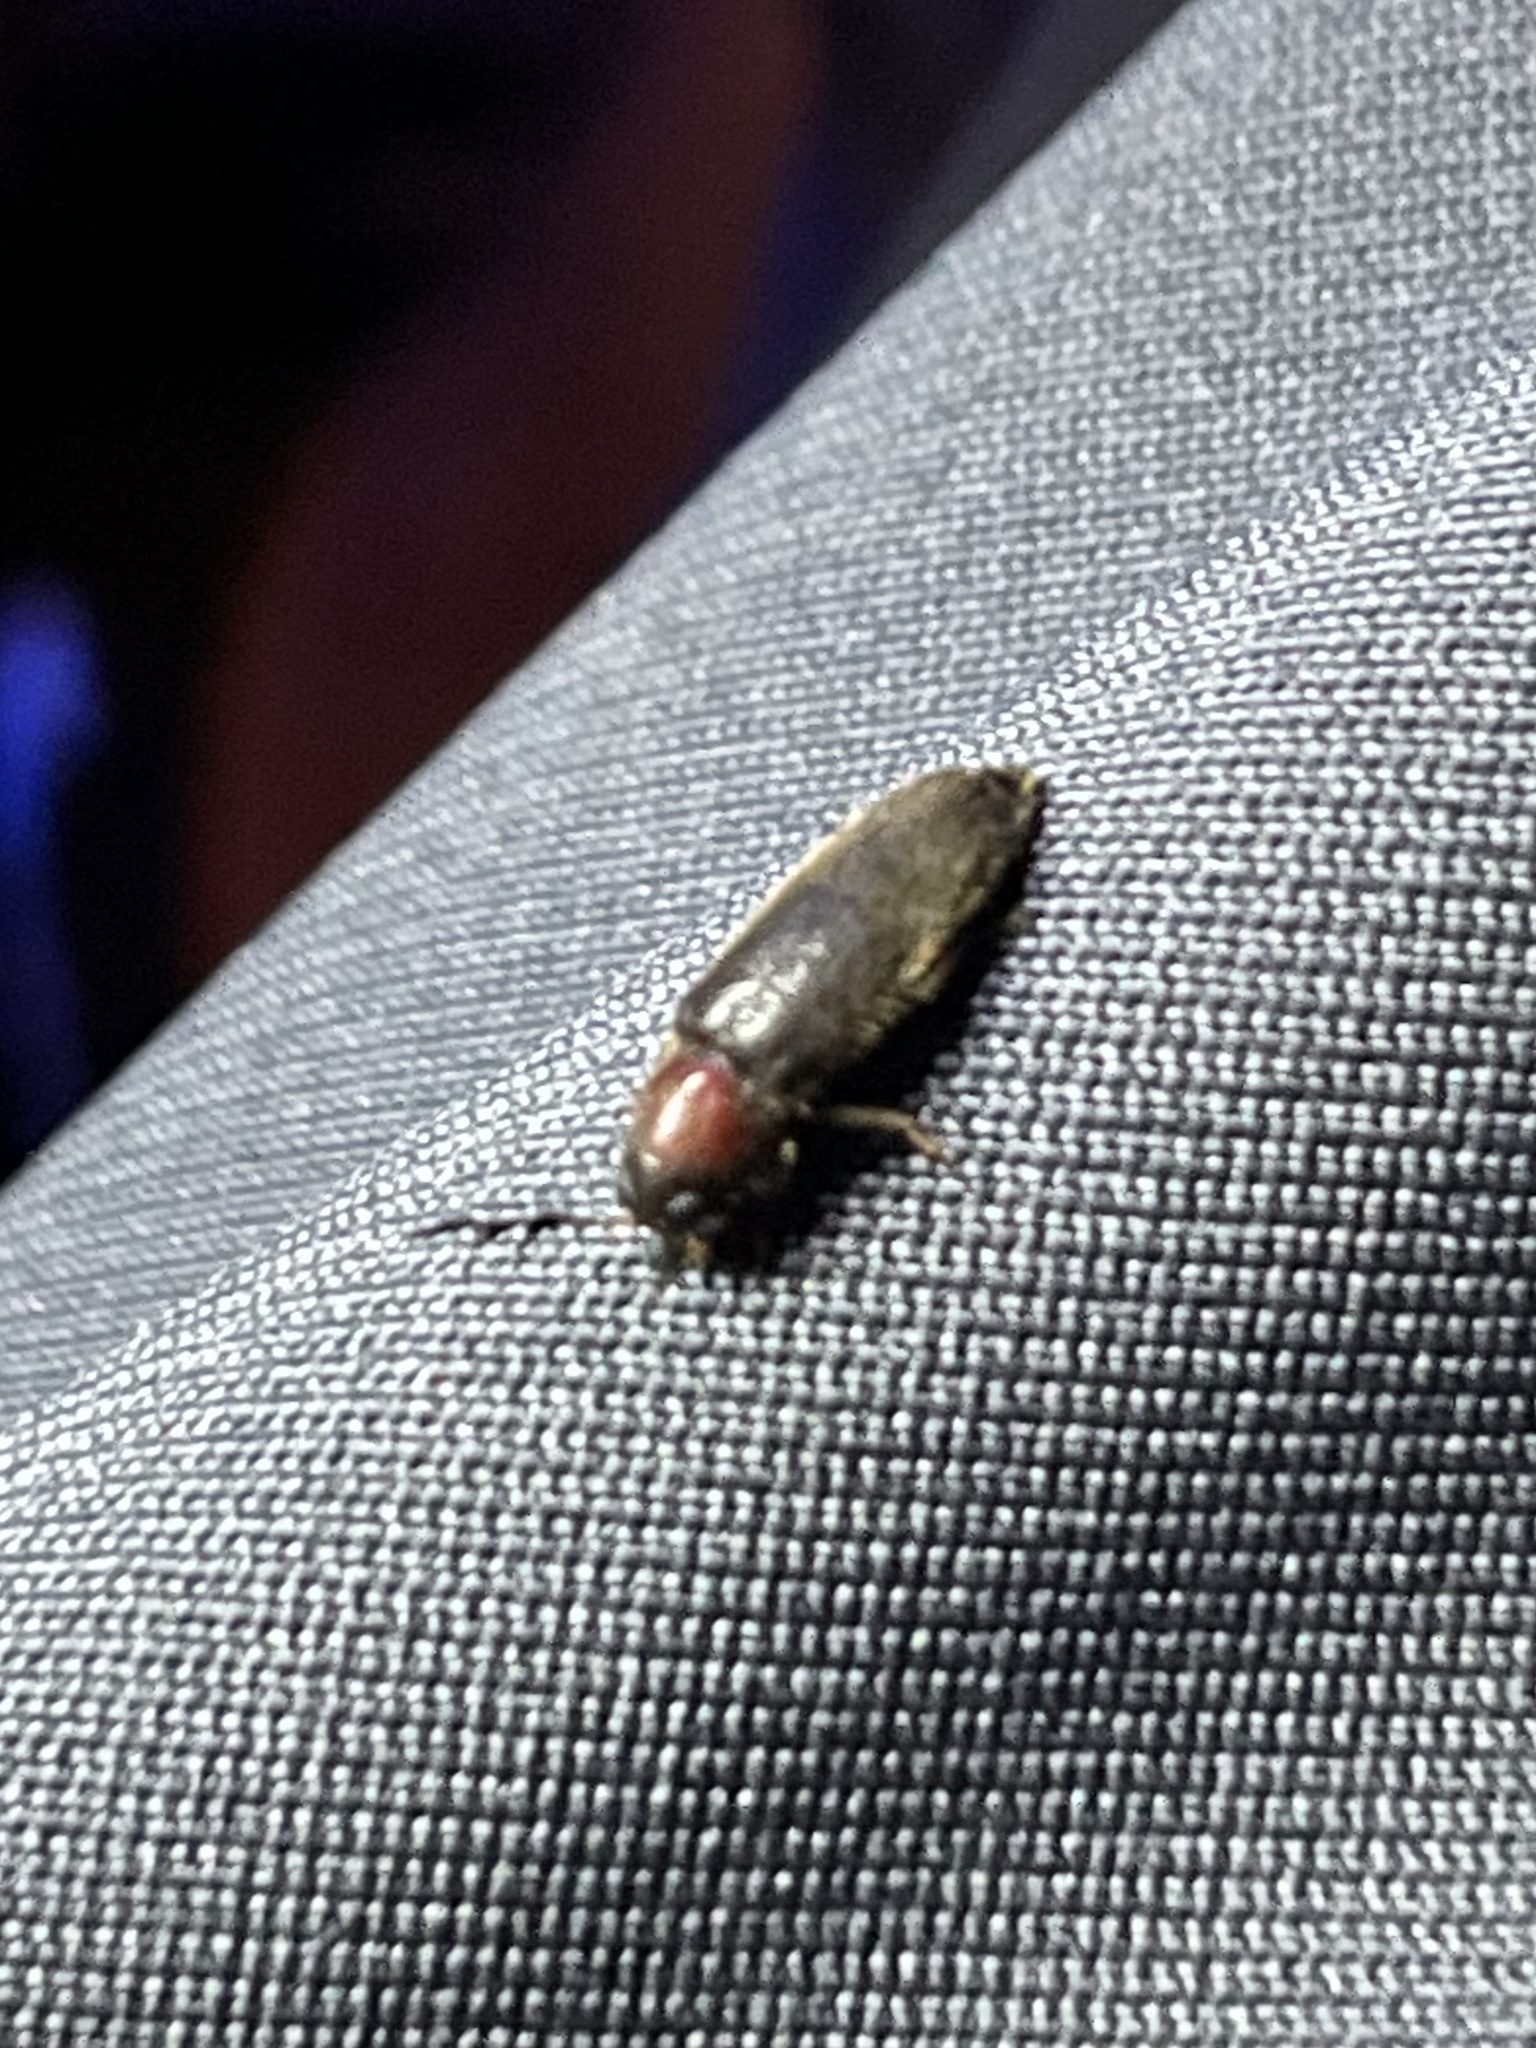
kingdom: Animalia
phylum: Arthropoda
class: Insecta
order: Coleoptera
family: Cleridae
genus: Neorthopleura
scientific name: Neorthopleura texana
